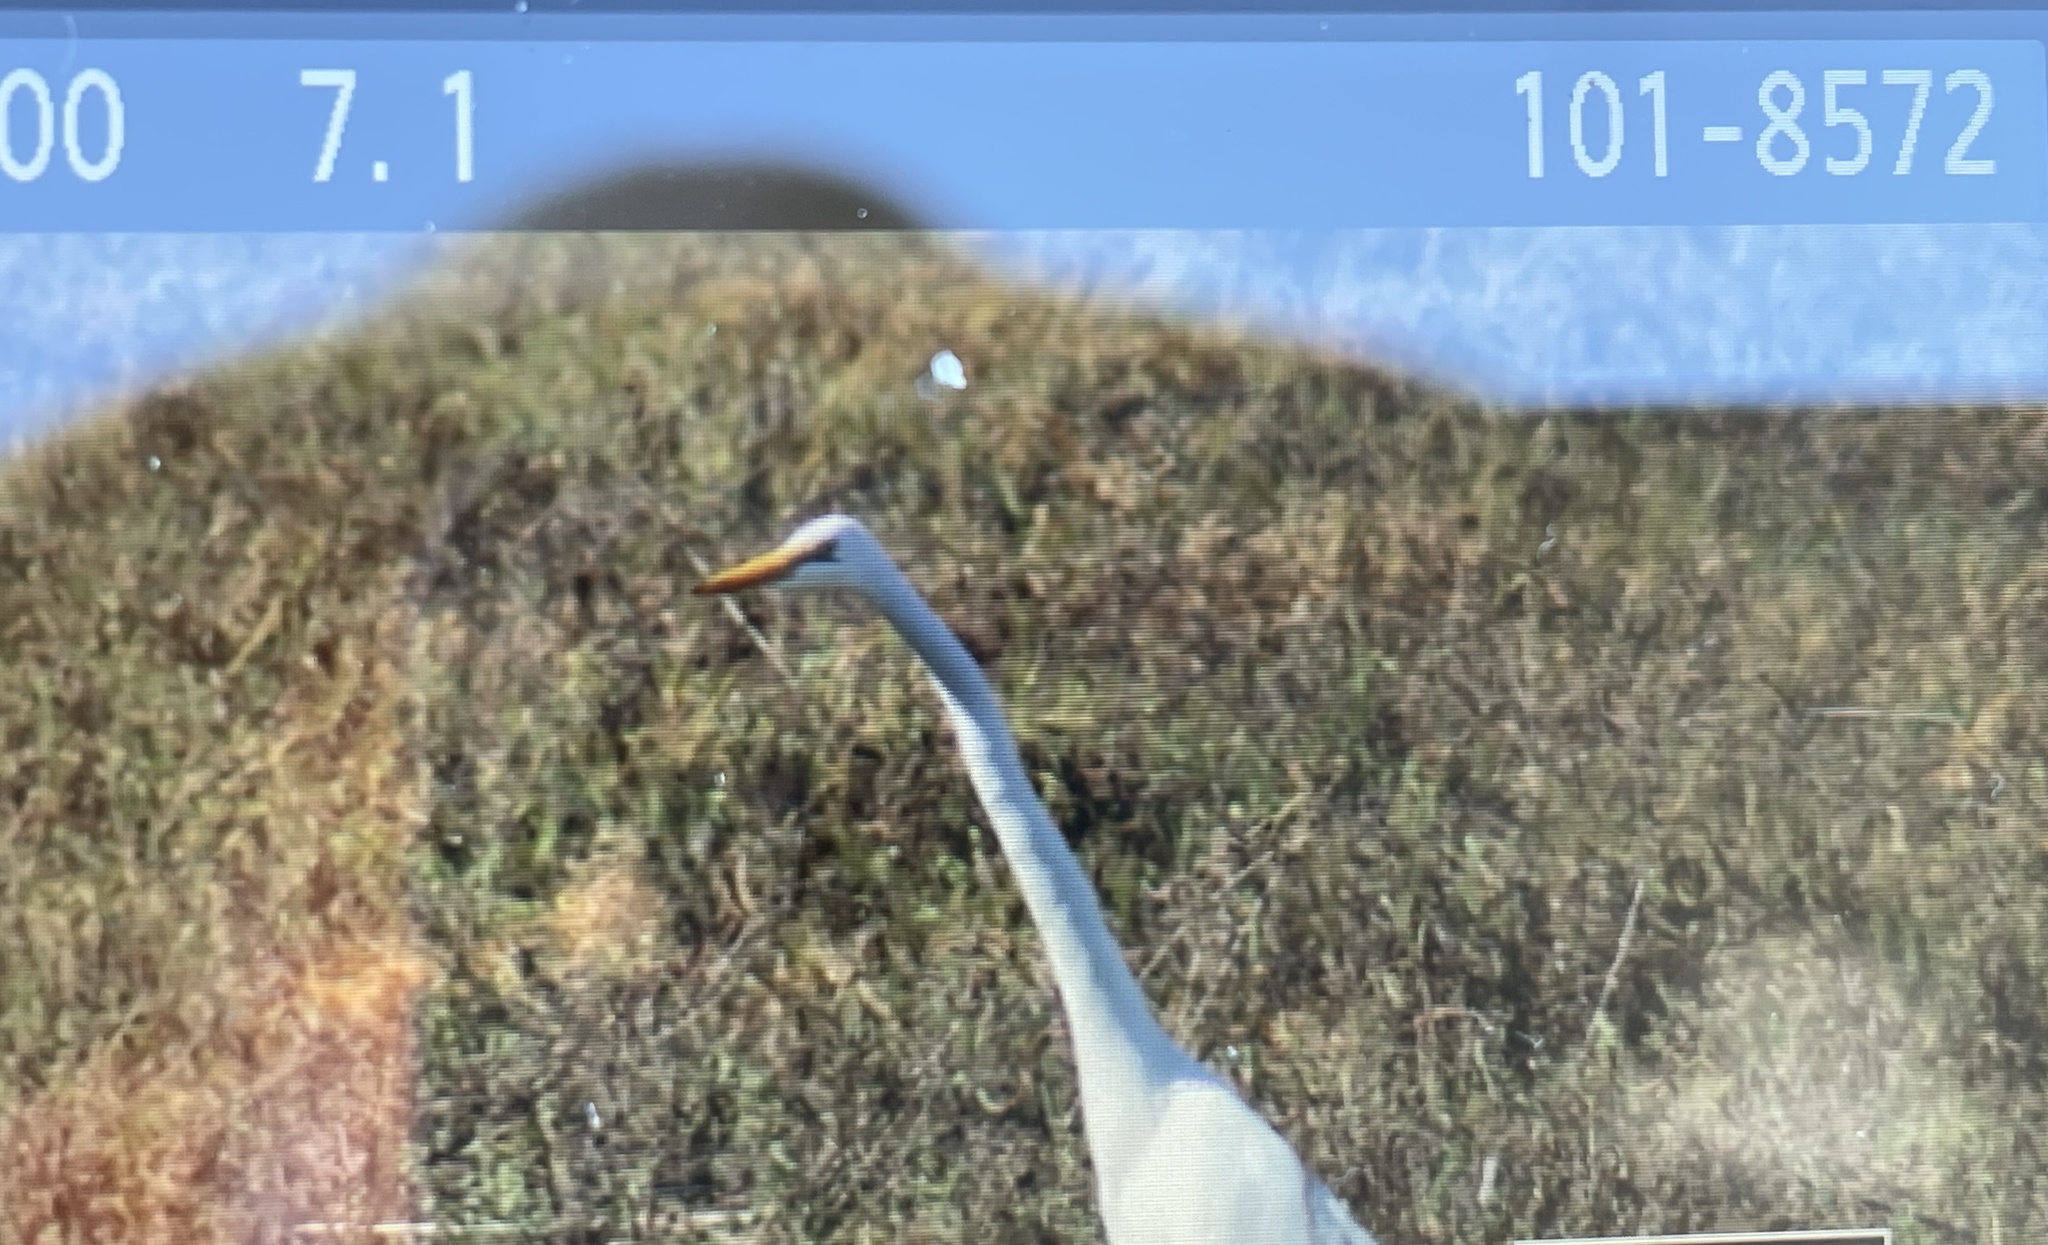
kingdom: Animalia
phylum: Chordata
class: Aves
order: Pelecaniformes
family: Ardeidae
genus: Ardea
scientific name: Ardea alba
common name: Great egret
